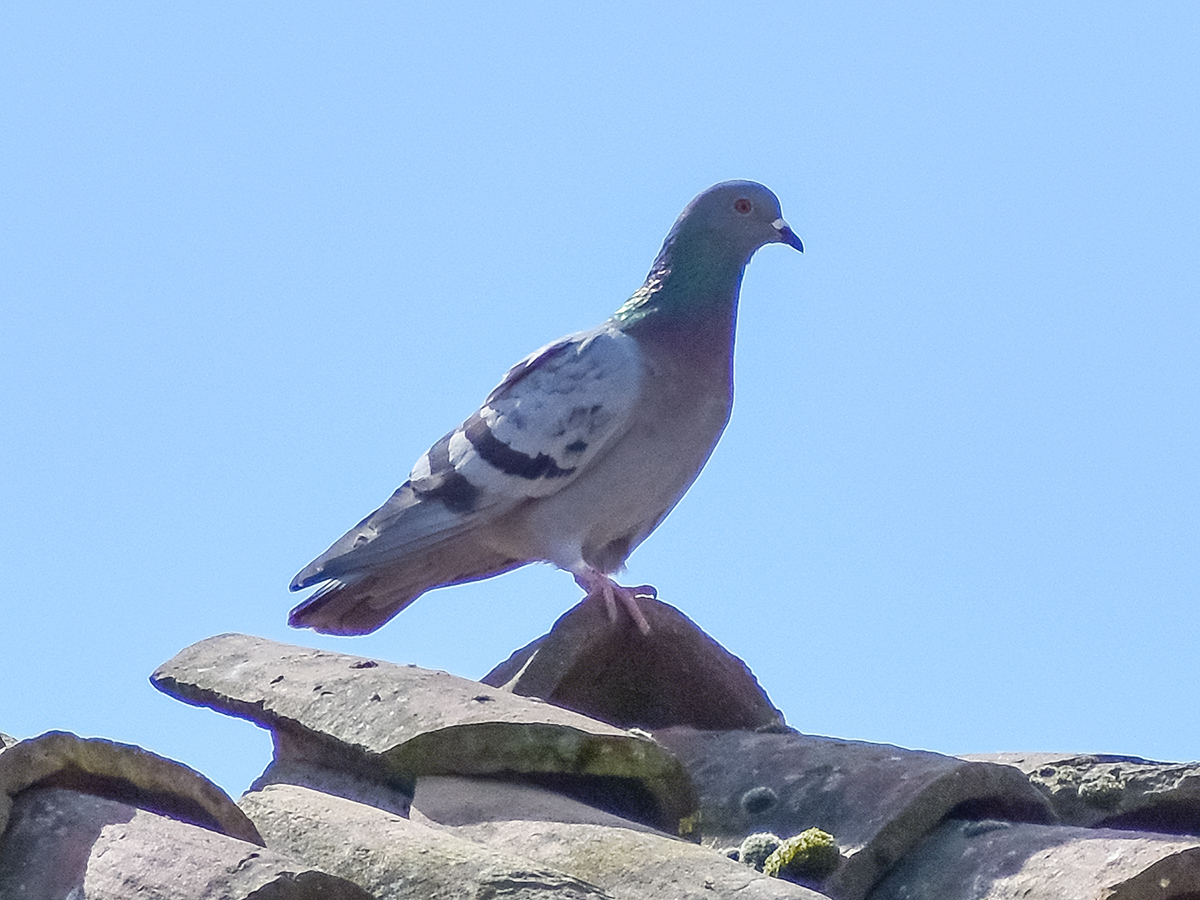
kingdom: Animalia
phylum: Chordata
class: Aves
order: Columbiformes
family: Columbidae
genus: Columba
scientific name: Columba livia
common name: Rock pigeon
